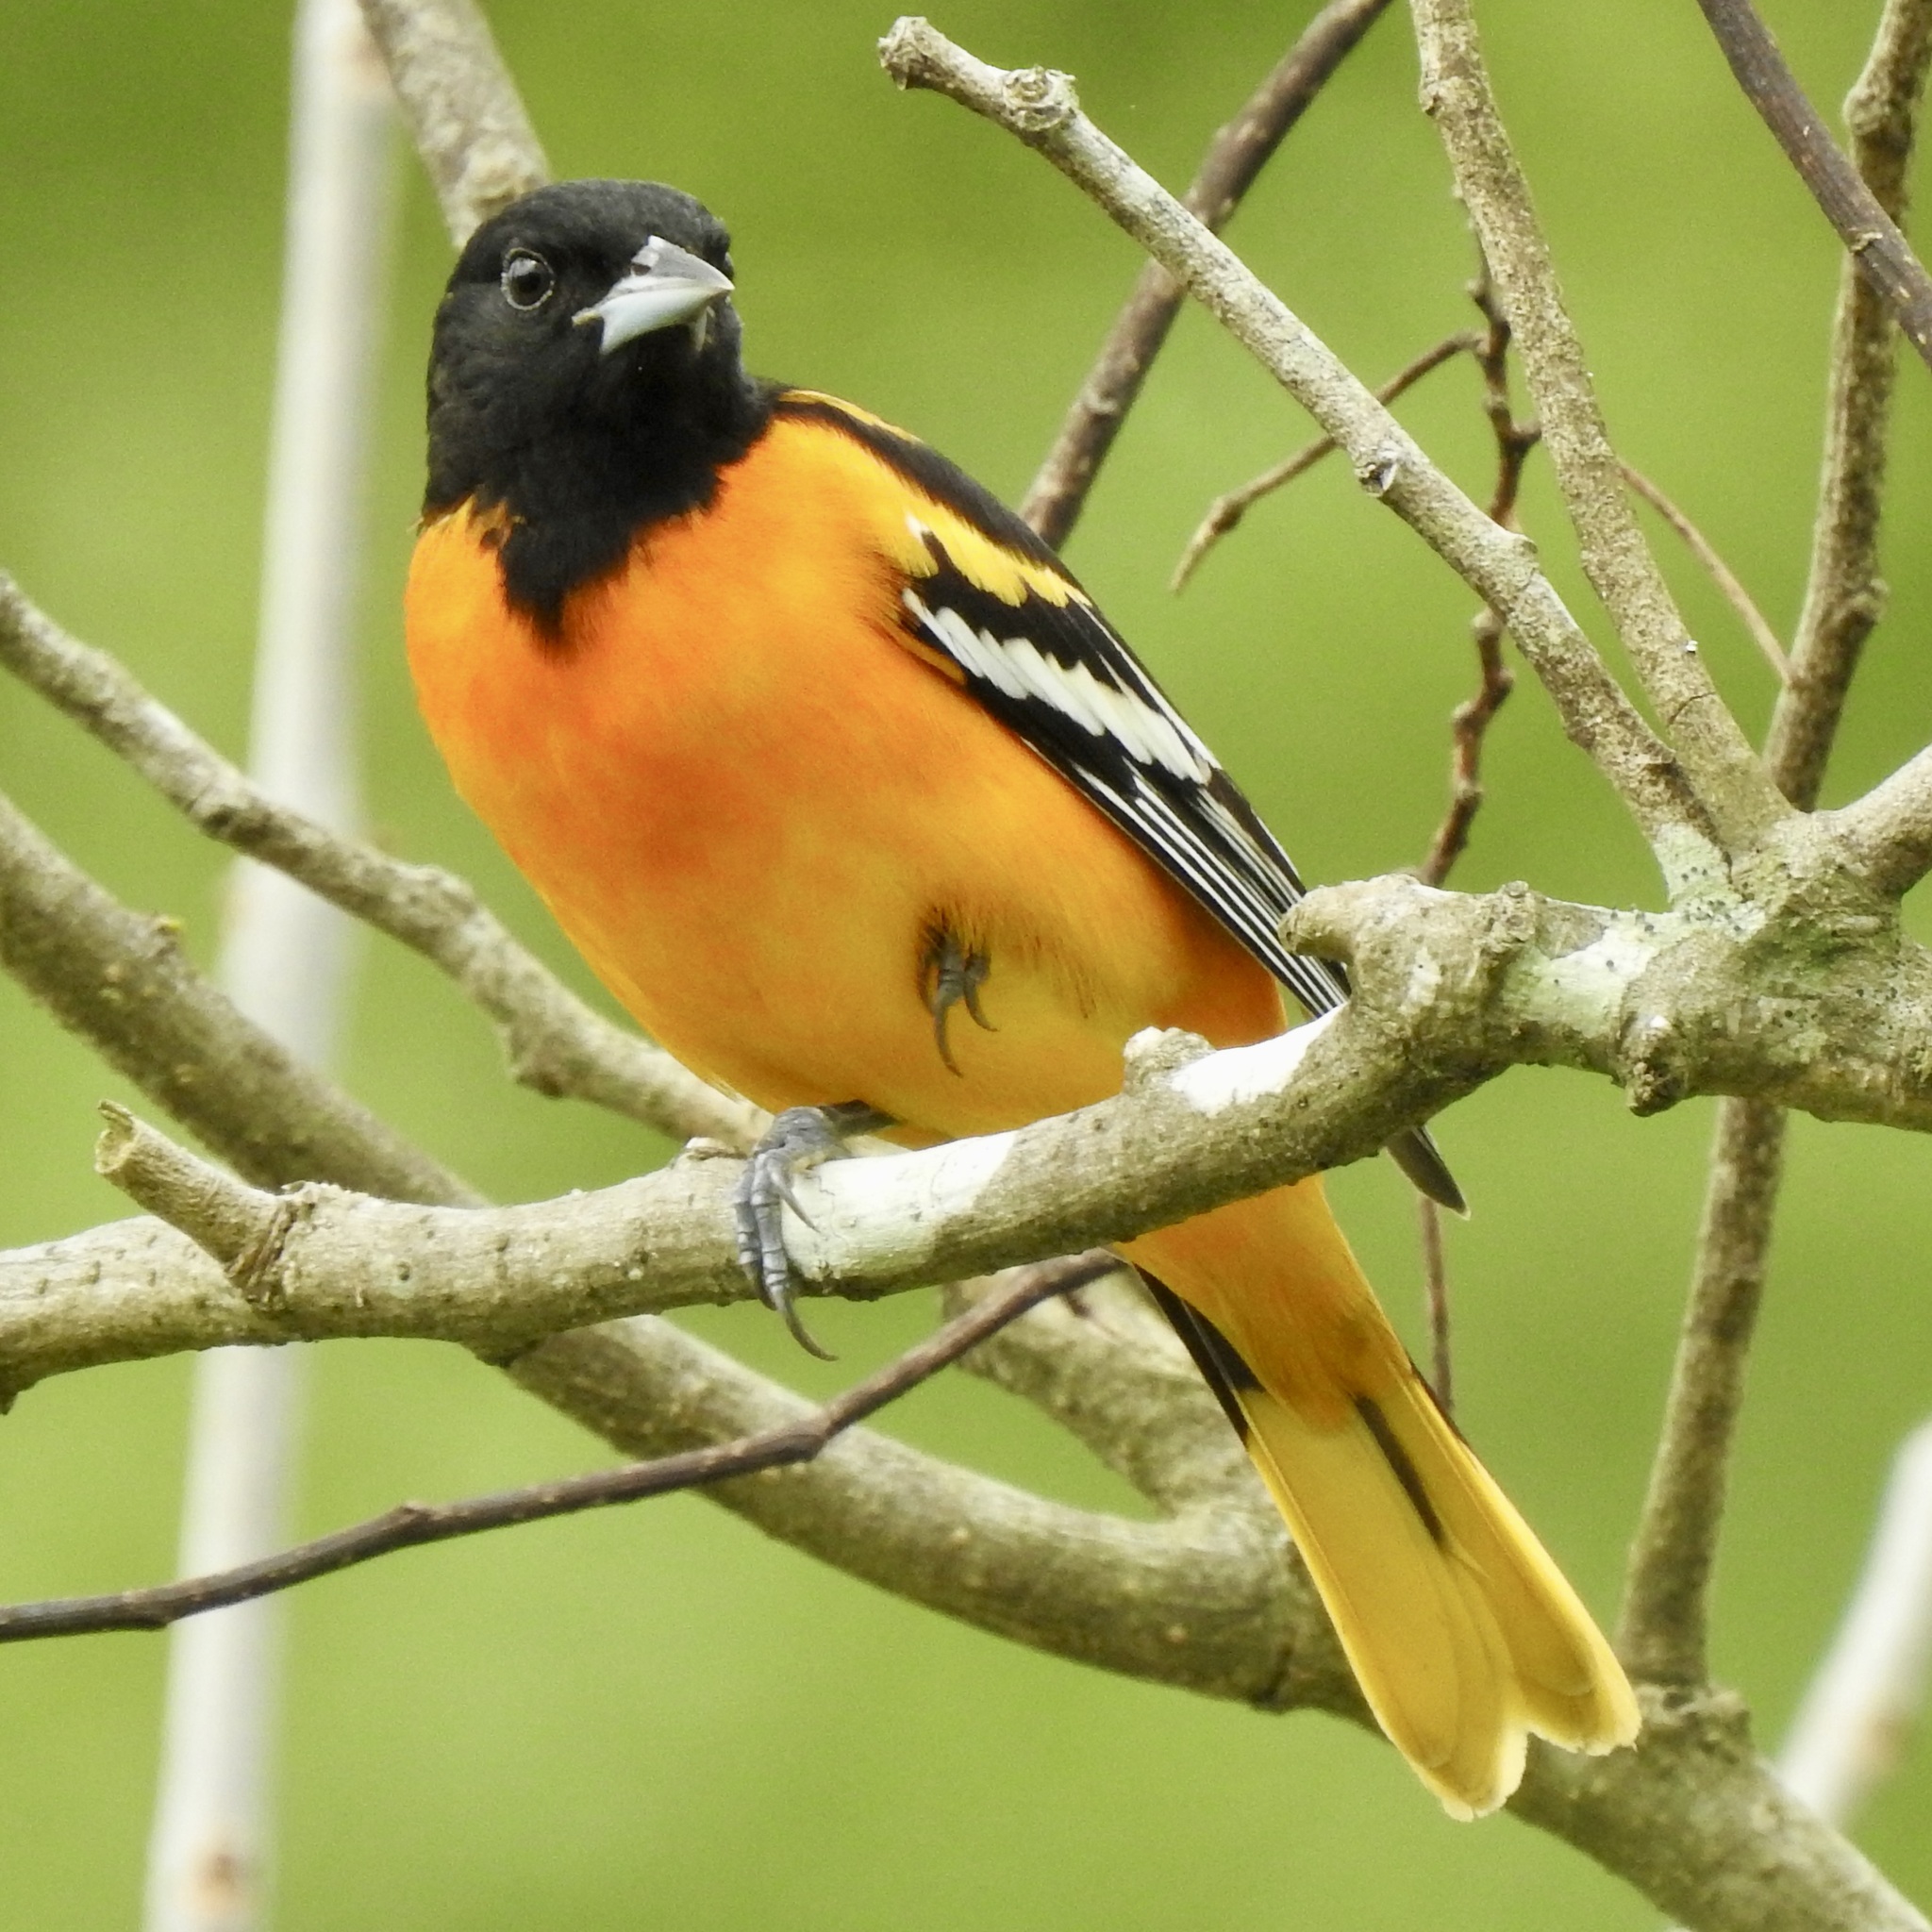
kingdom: Animalia
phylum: Chordata
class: Aves
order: Passeriformes
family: Icteridae
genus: Icterus
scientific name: Icterus galbula
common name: Baltimore oriole
